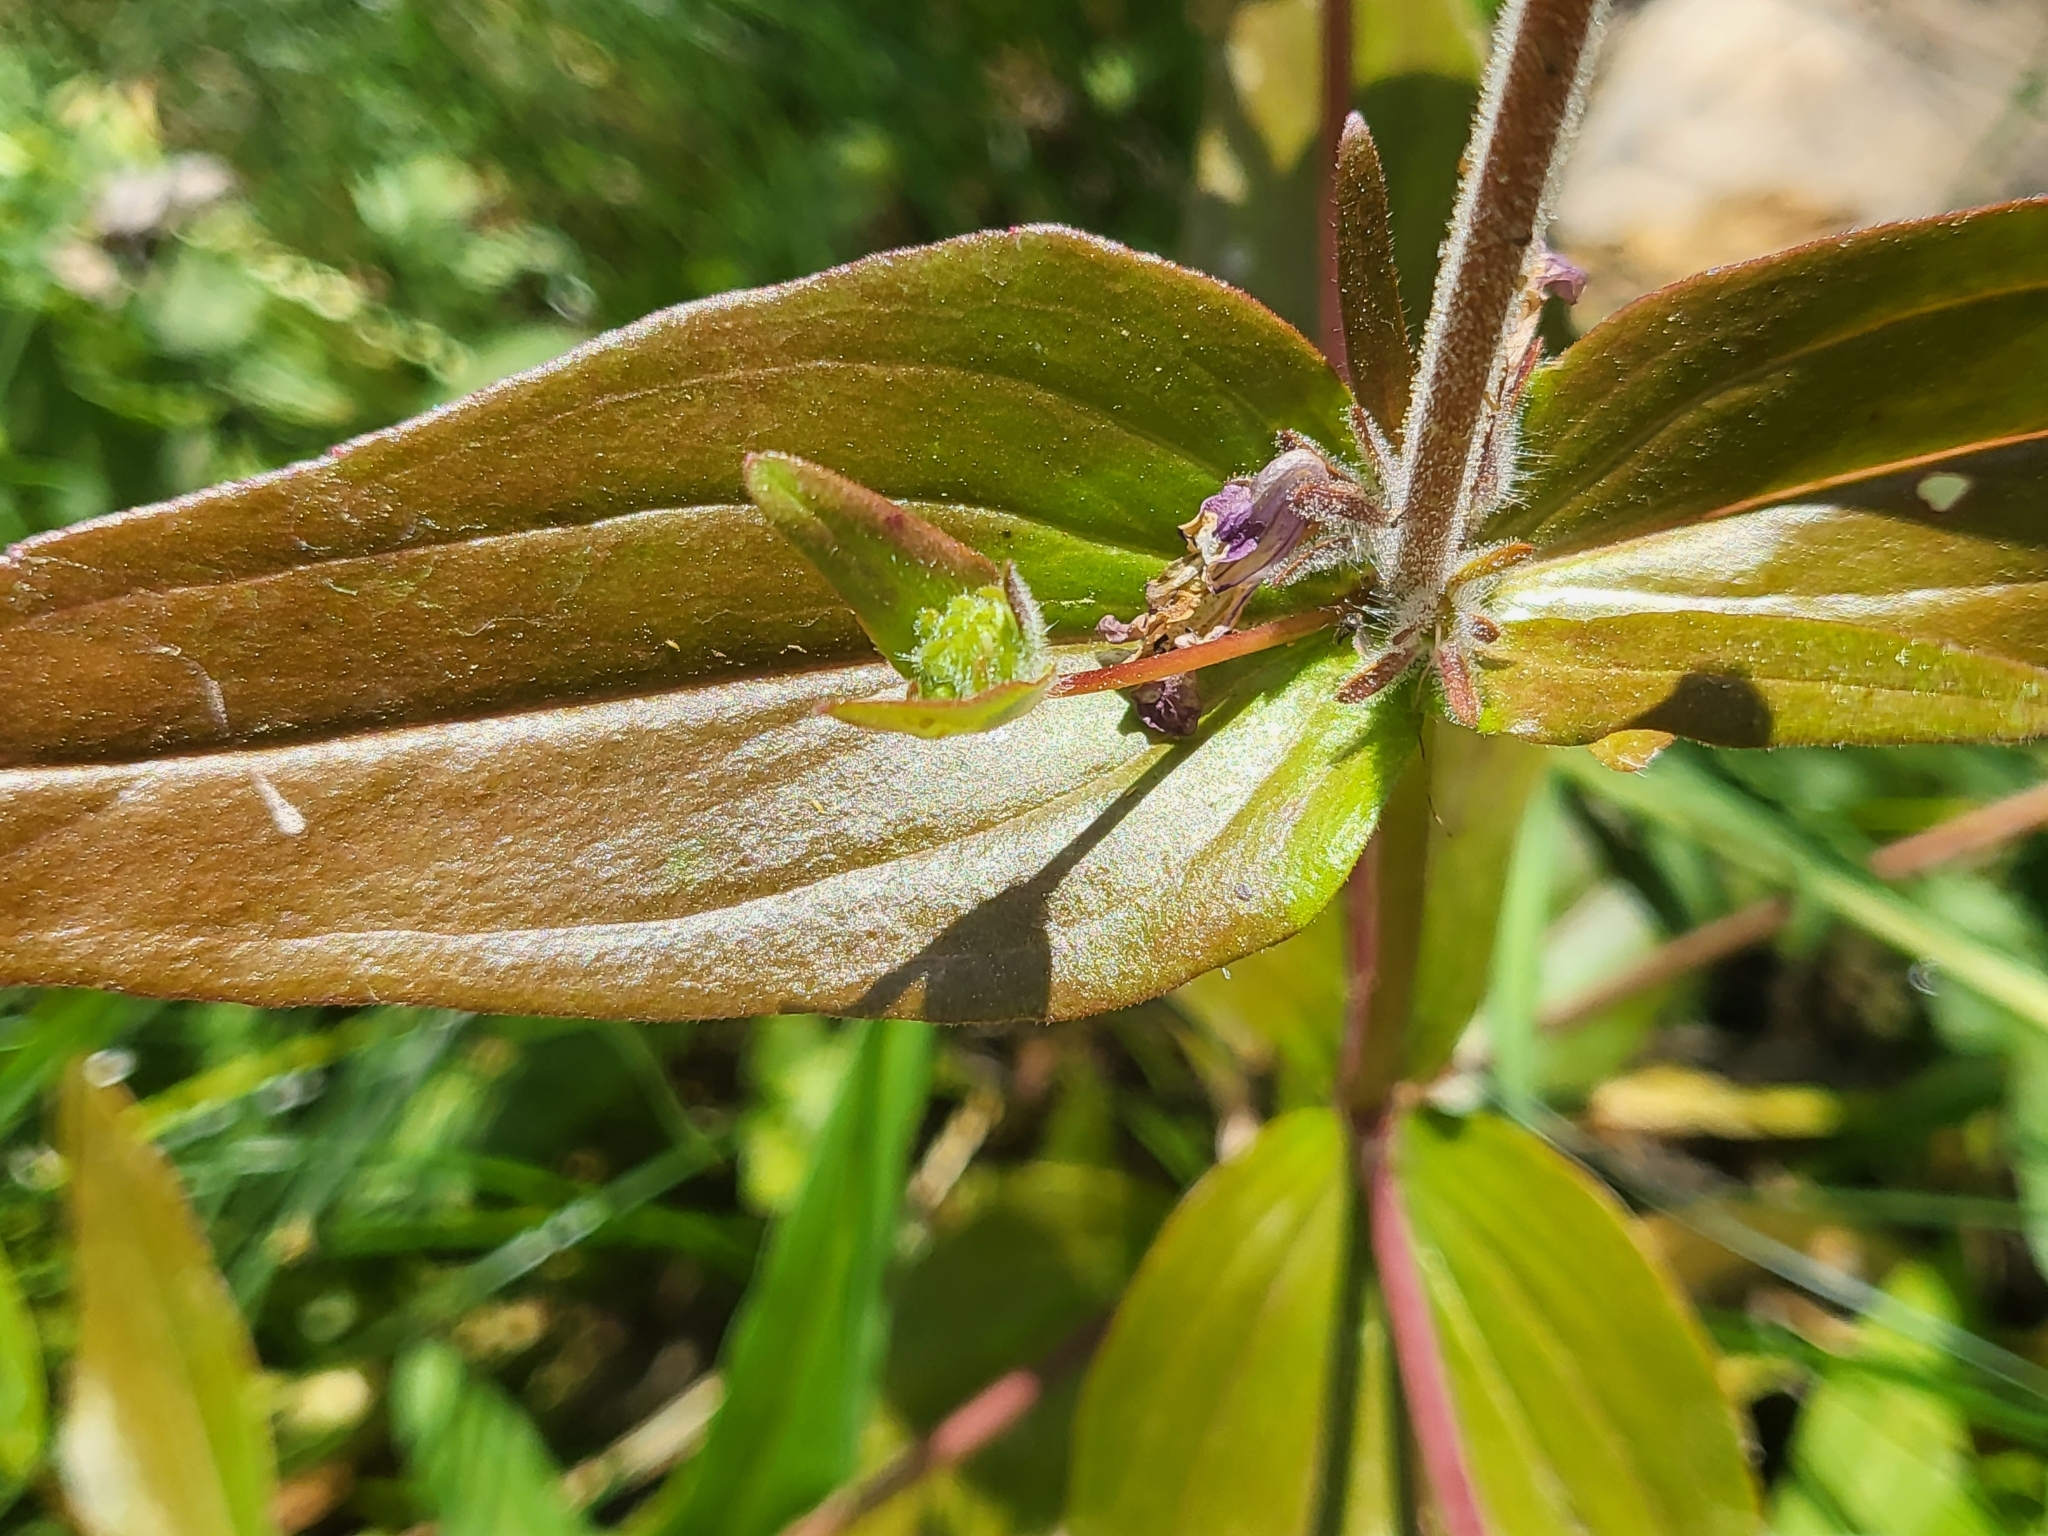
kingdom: Plantae
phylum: Tracheophyta
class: Magnoliopsida
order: Lamiales
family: Plantaginaceae
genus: Collinsia
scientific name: Collinsia tinctoria
